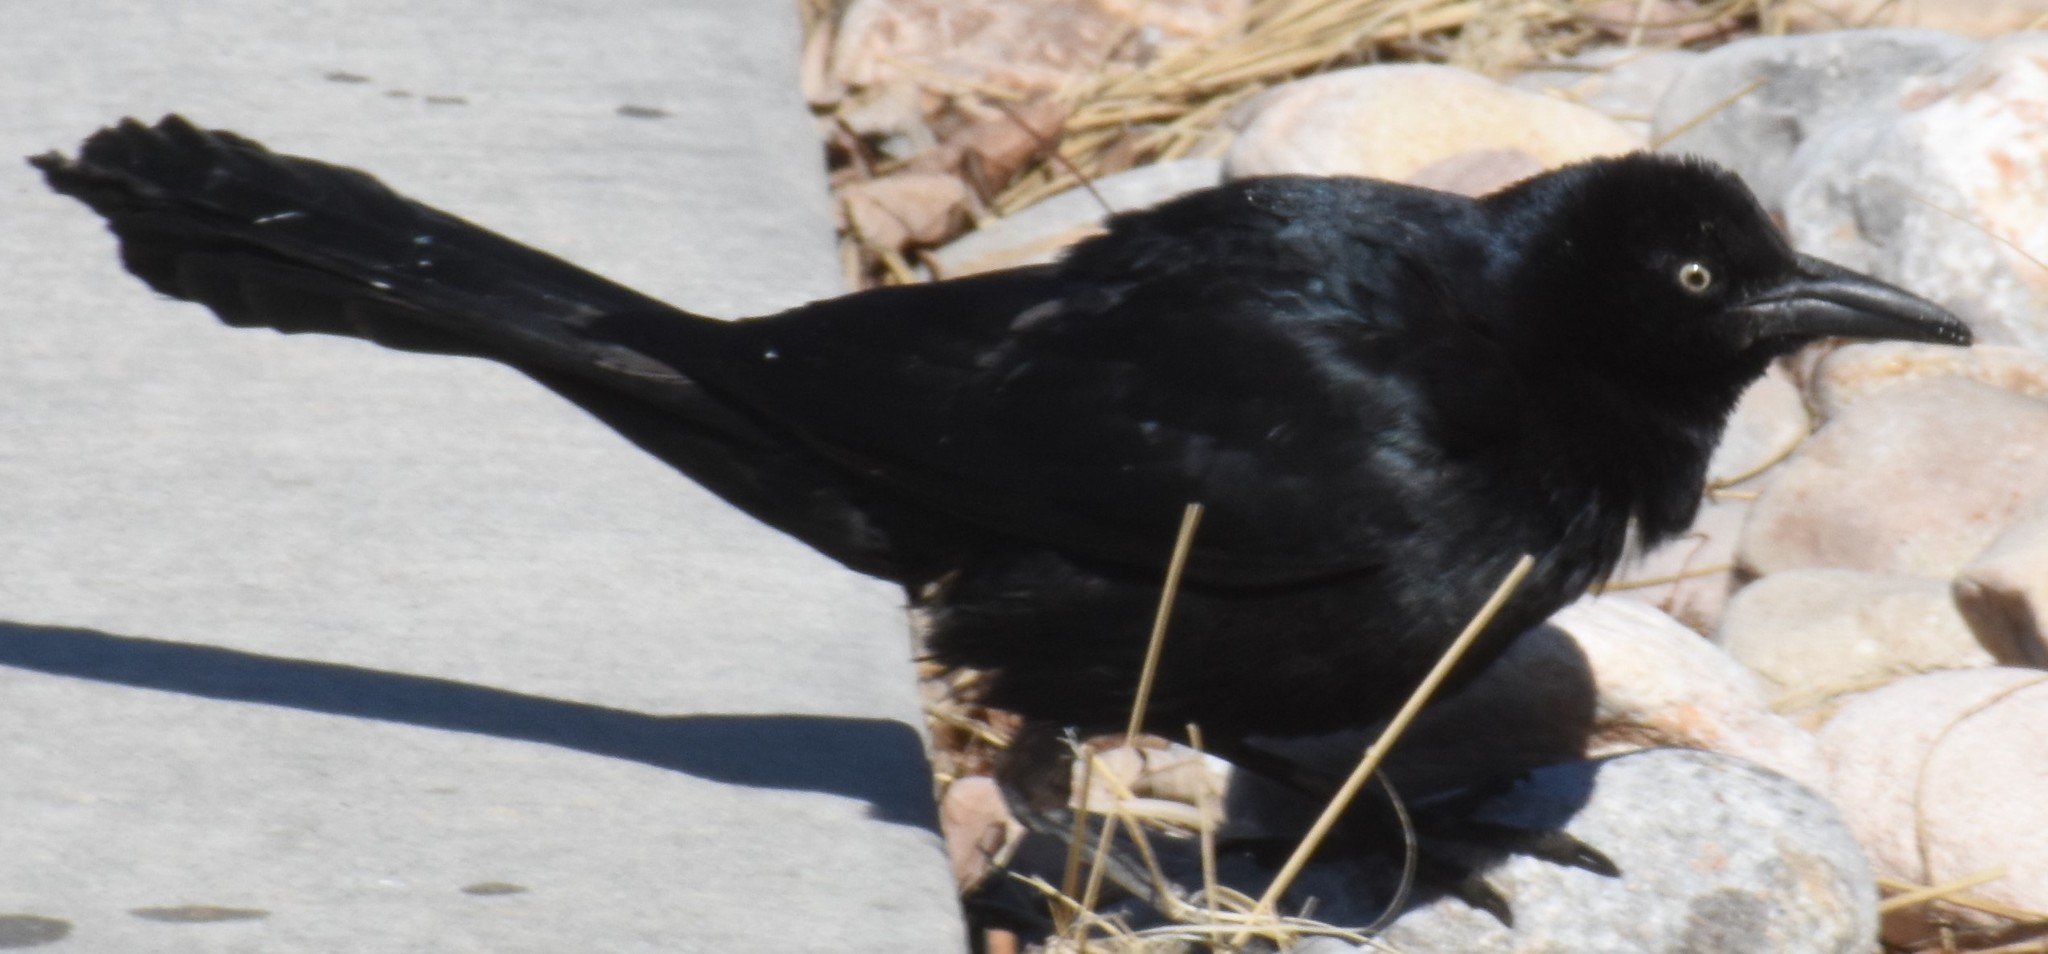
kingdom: Animalia
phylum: Chordata
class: Aves
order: Passeriformes
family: Icteridae
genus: Quiscalus
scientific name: Quiscalus mexicanus
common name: Great-tailed grackle
